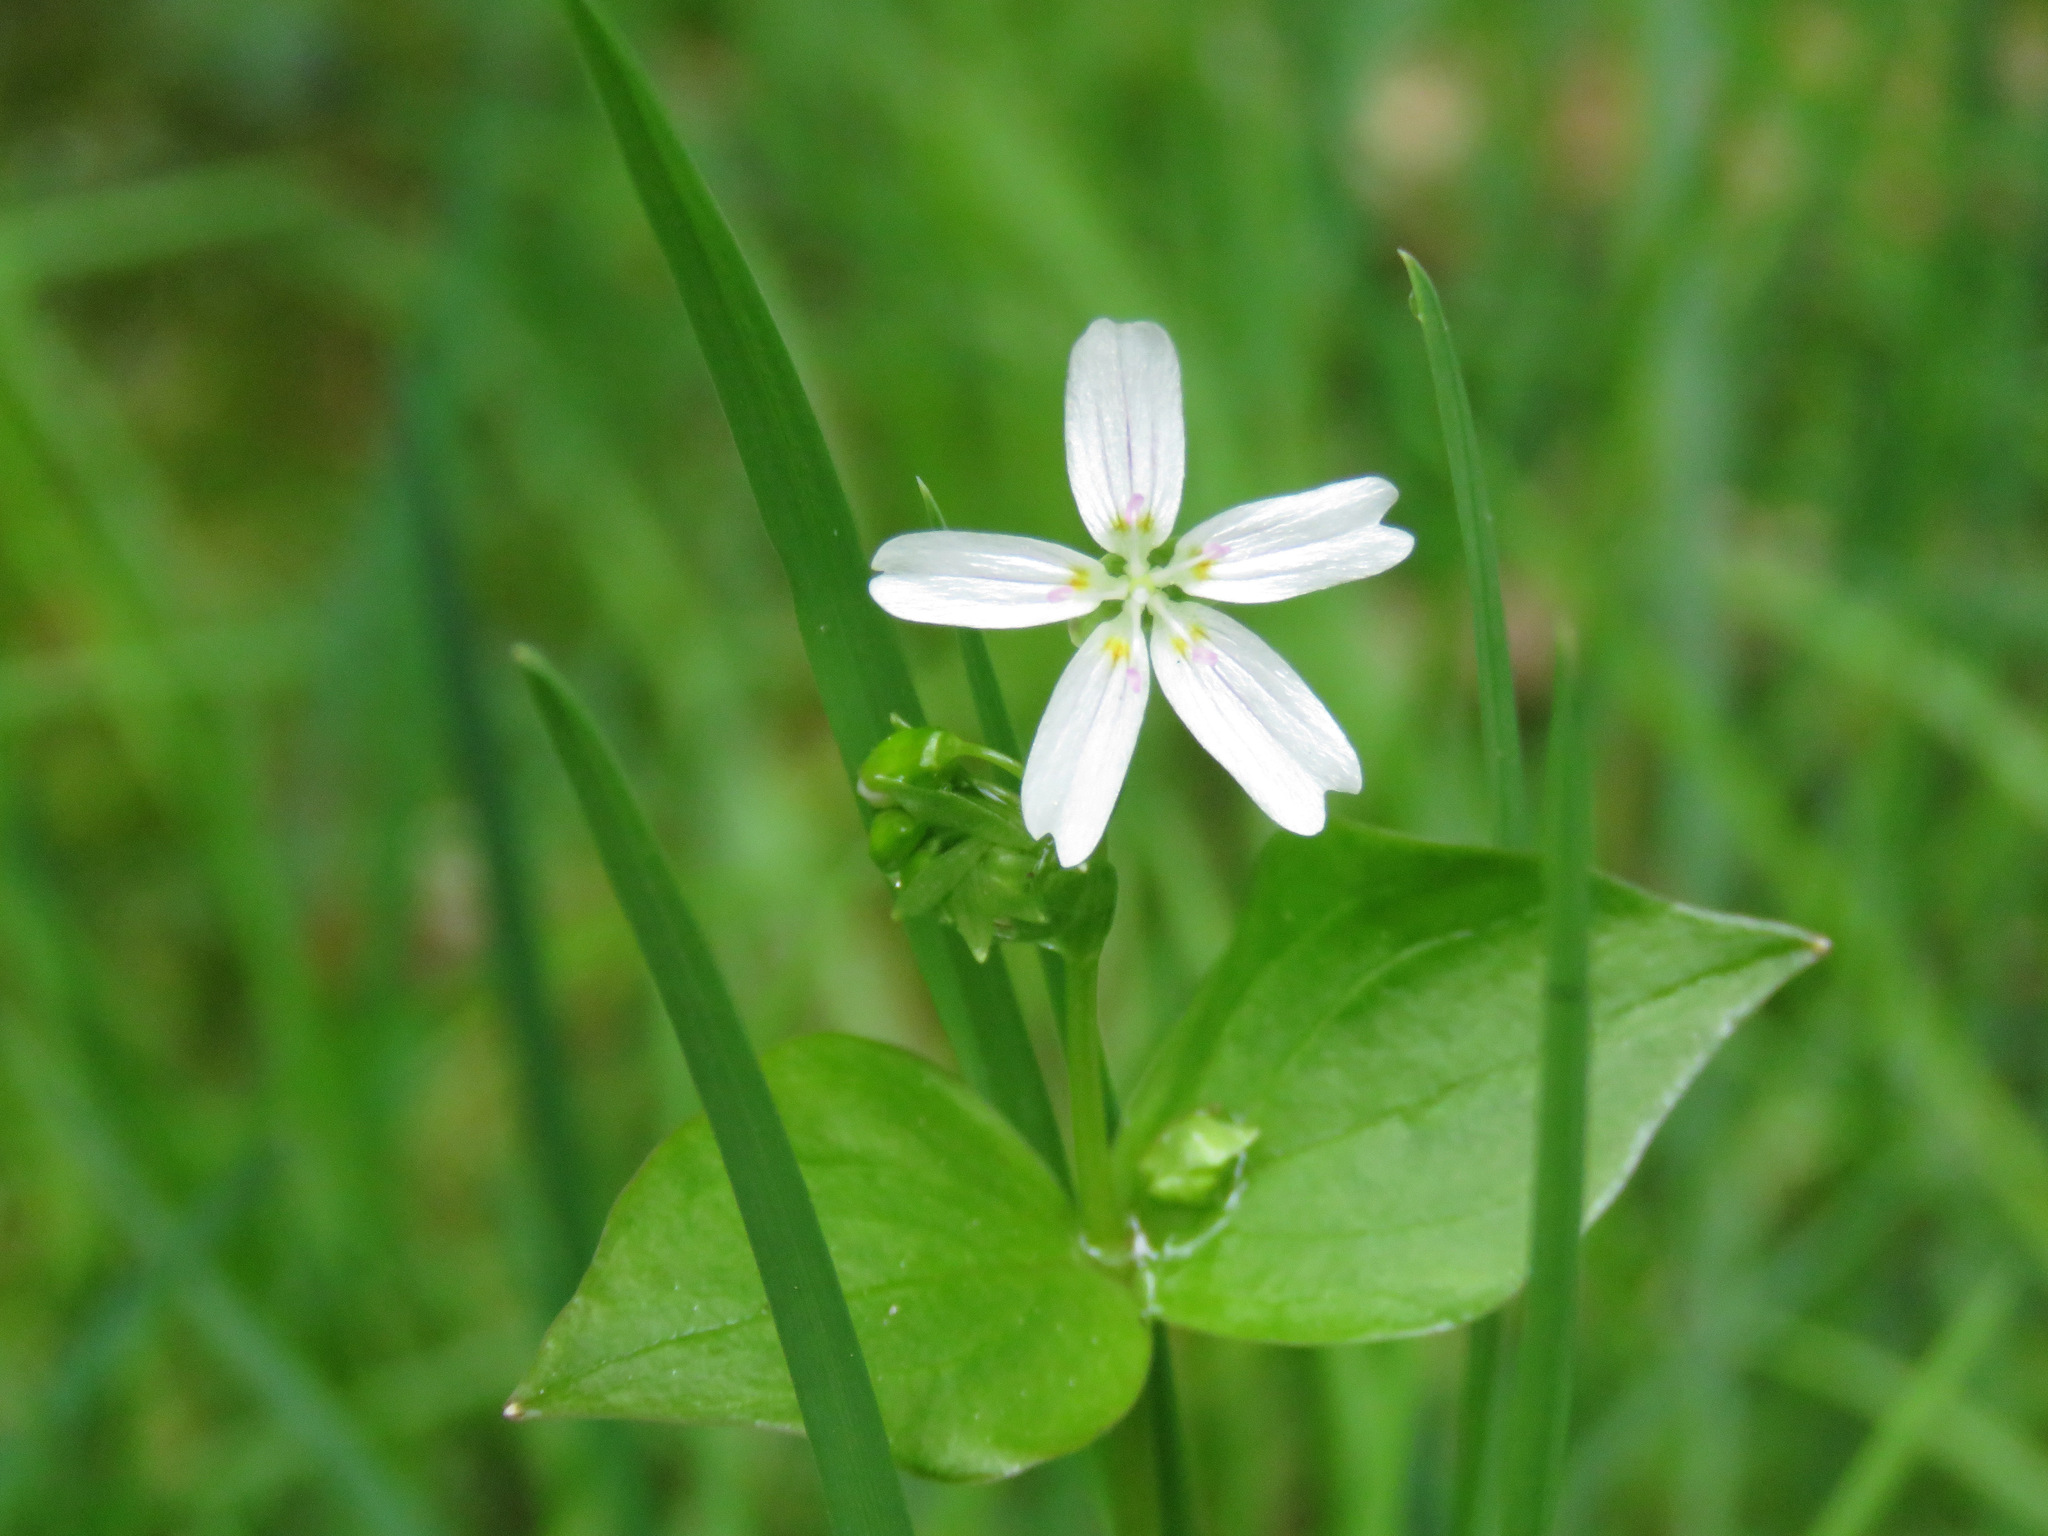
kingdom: Plantae
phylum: Tracheophyta
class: Magnoliopsida
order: Caryophyllales
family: Montiaceae
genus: Claytonia
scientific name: Claytonia sibirica
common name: Pink purslane
